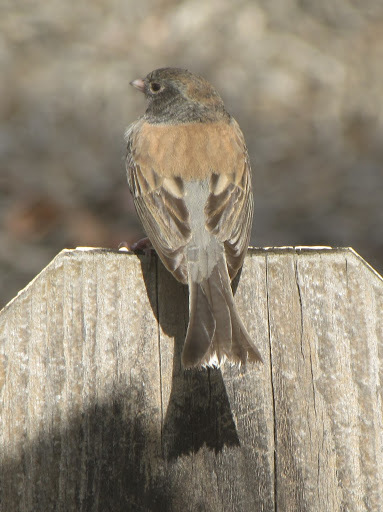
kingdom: Animalia
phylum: Chordata
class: Aves
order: Passeriformes
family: Passerellidae
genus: Junco
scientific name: Junco hyemalis
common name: Dark-eyed junco
